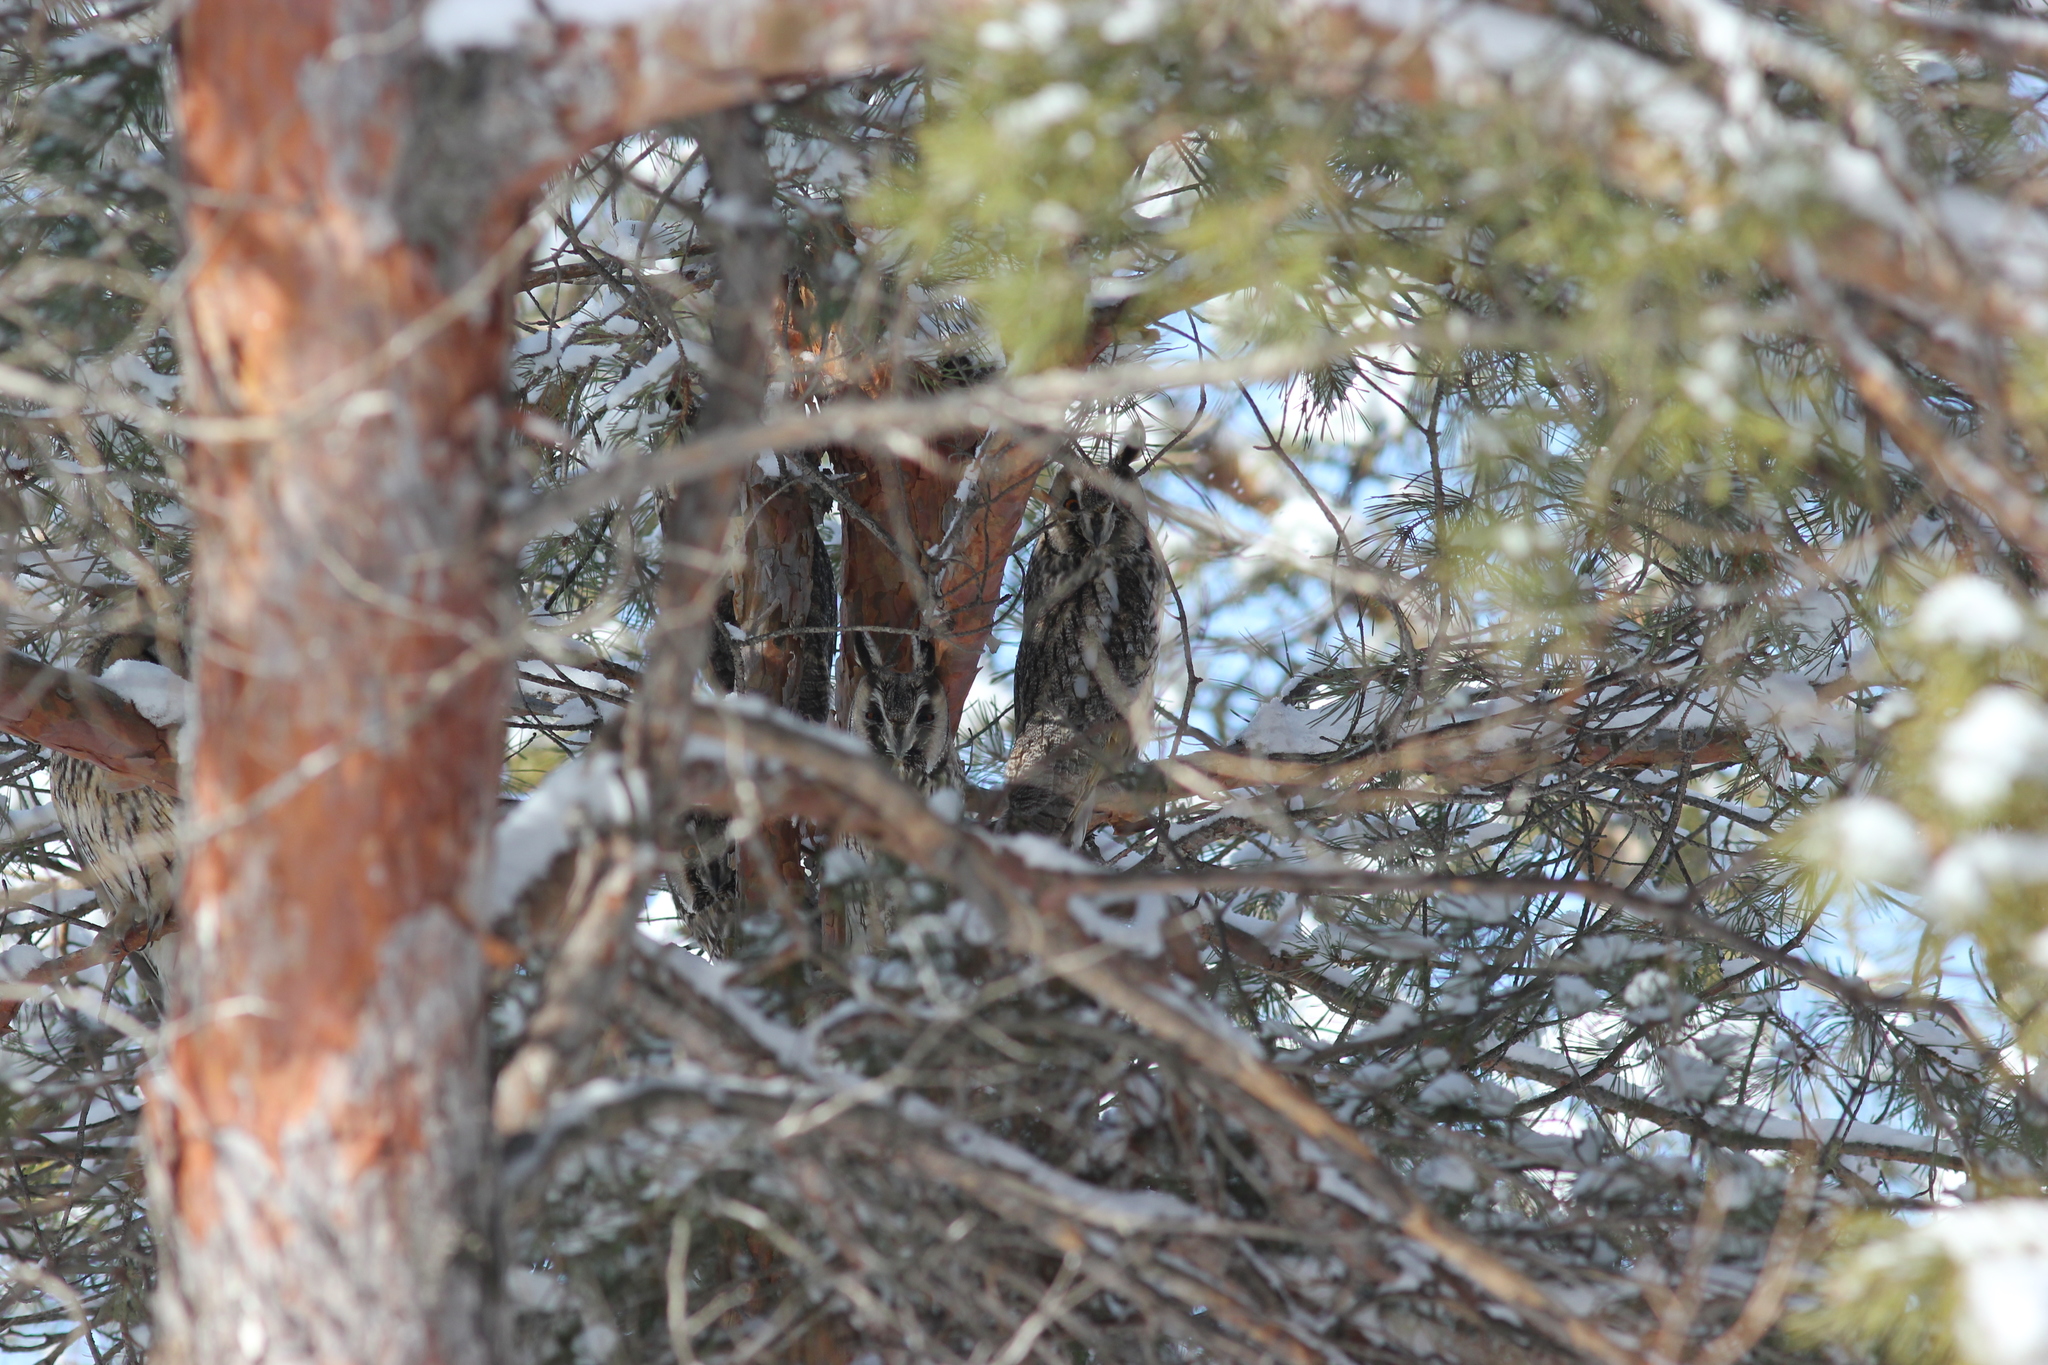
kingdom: Animalia
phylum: Chordata
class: Aves
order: Strigiformes
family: Strigidae
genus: Asio
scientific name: Asio otus
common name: Long-eared owl
